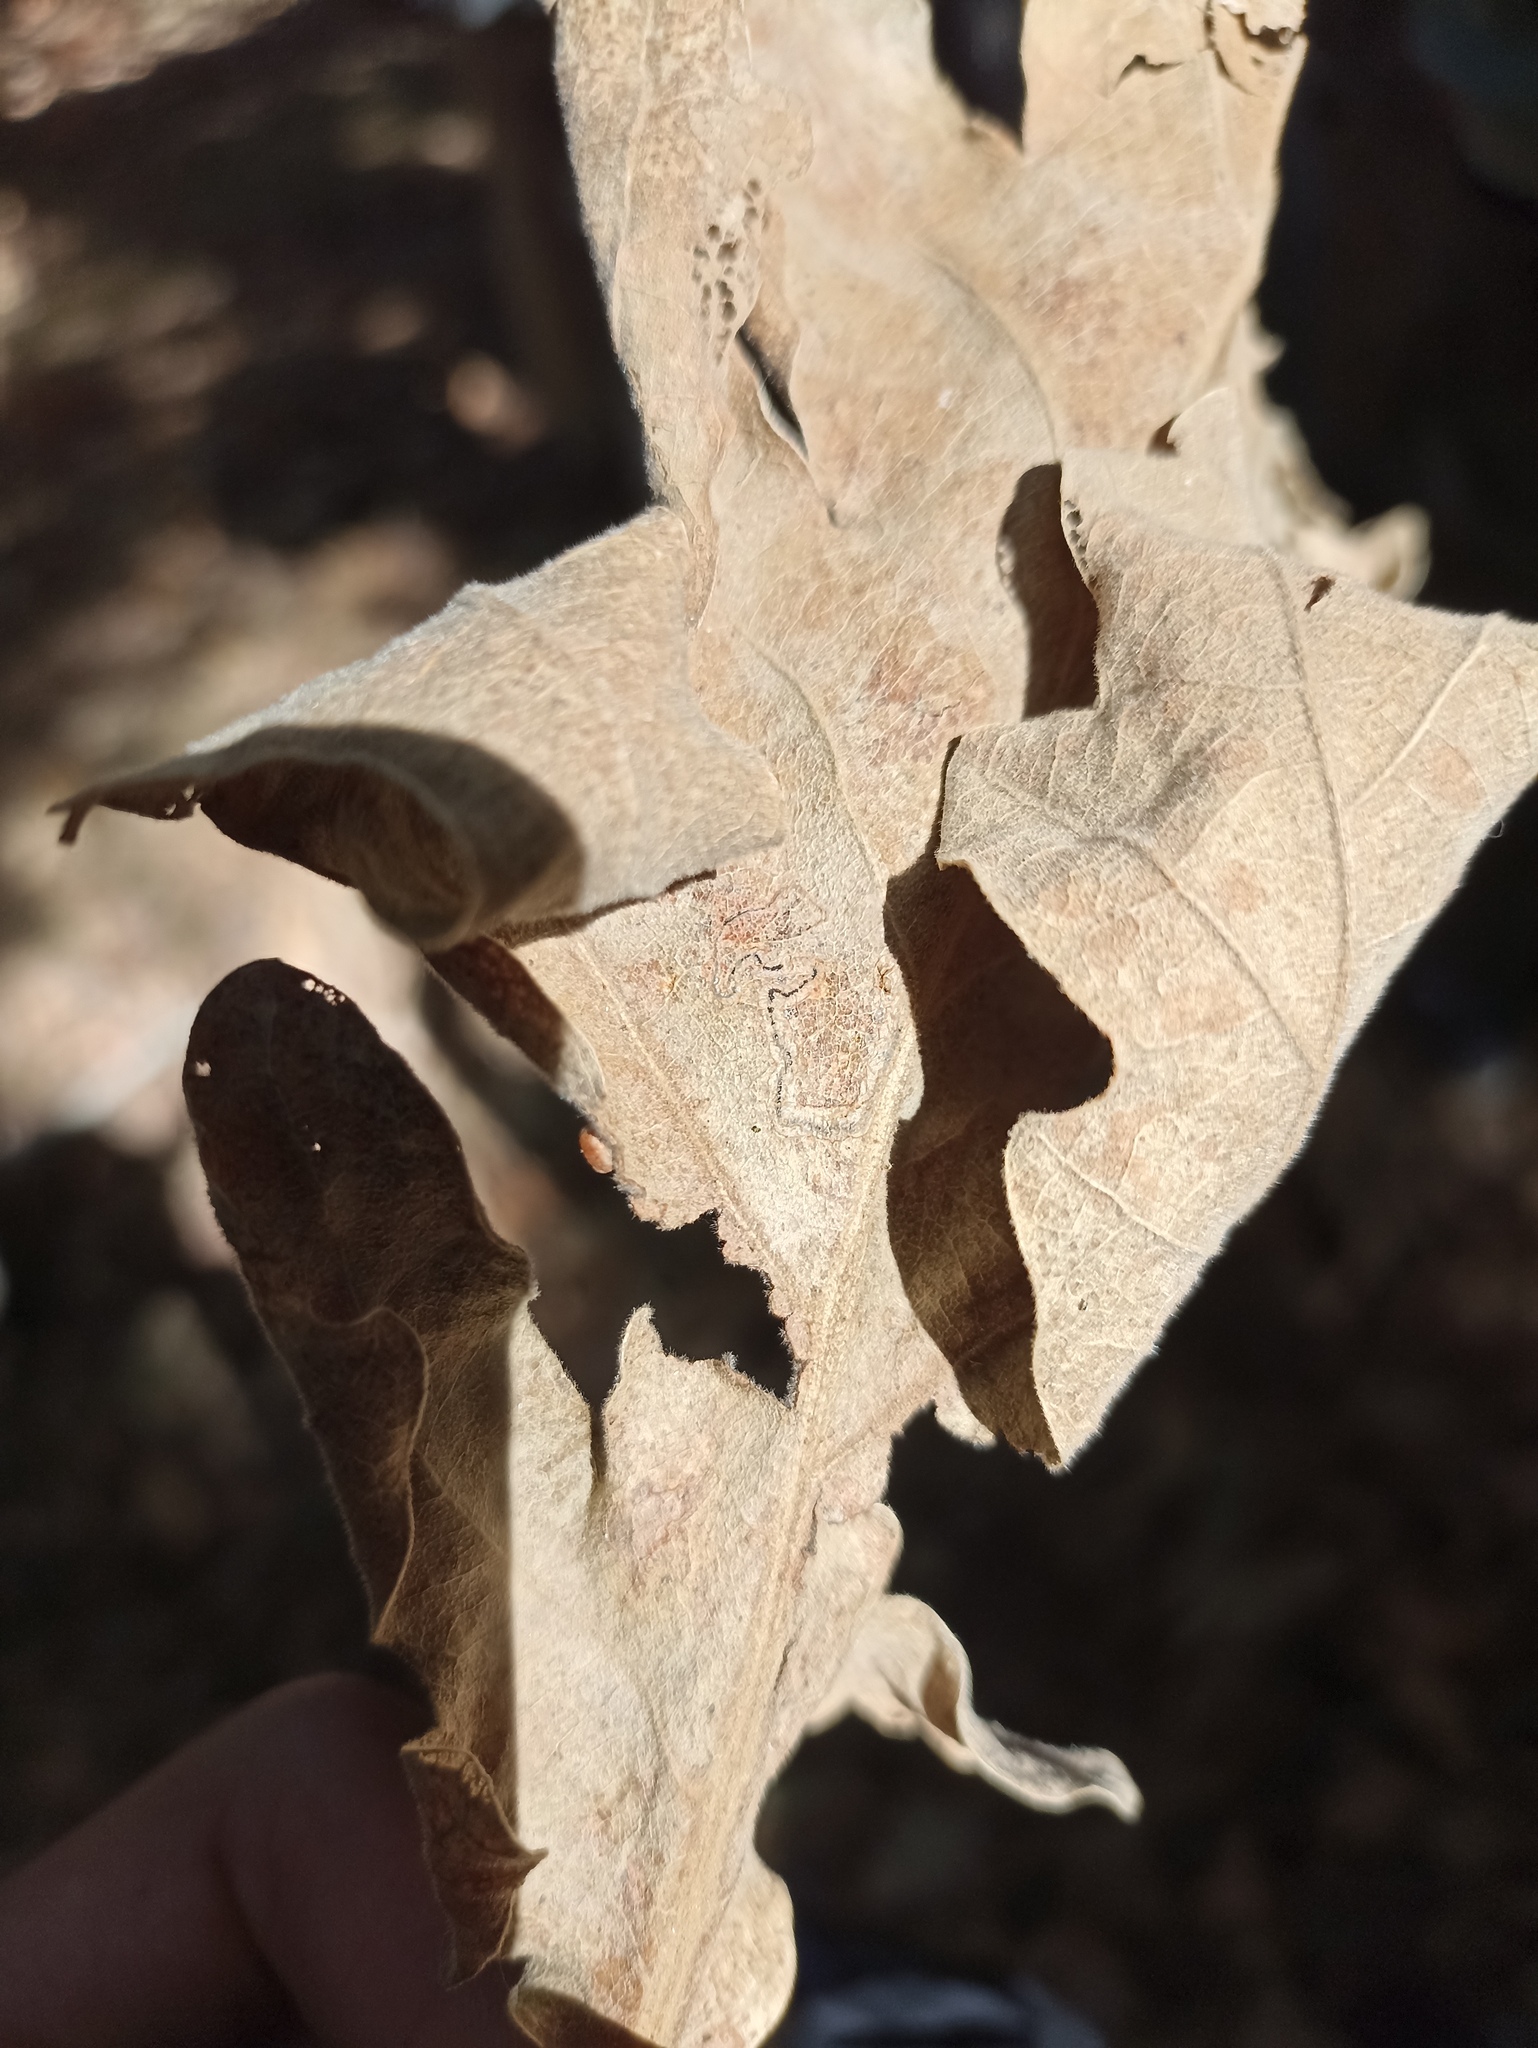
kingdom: Animalia
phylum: Arthropoda
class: Insecta
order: Hymenoptera
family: Cynipidae
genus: Neuroterus
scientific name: Neuroterus numismalis
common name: Silk-button spangle gall
